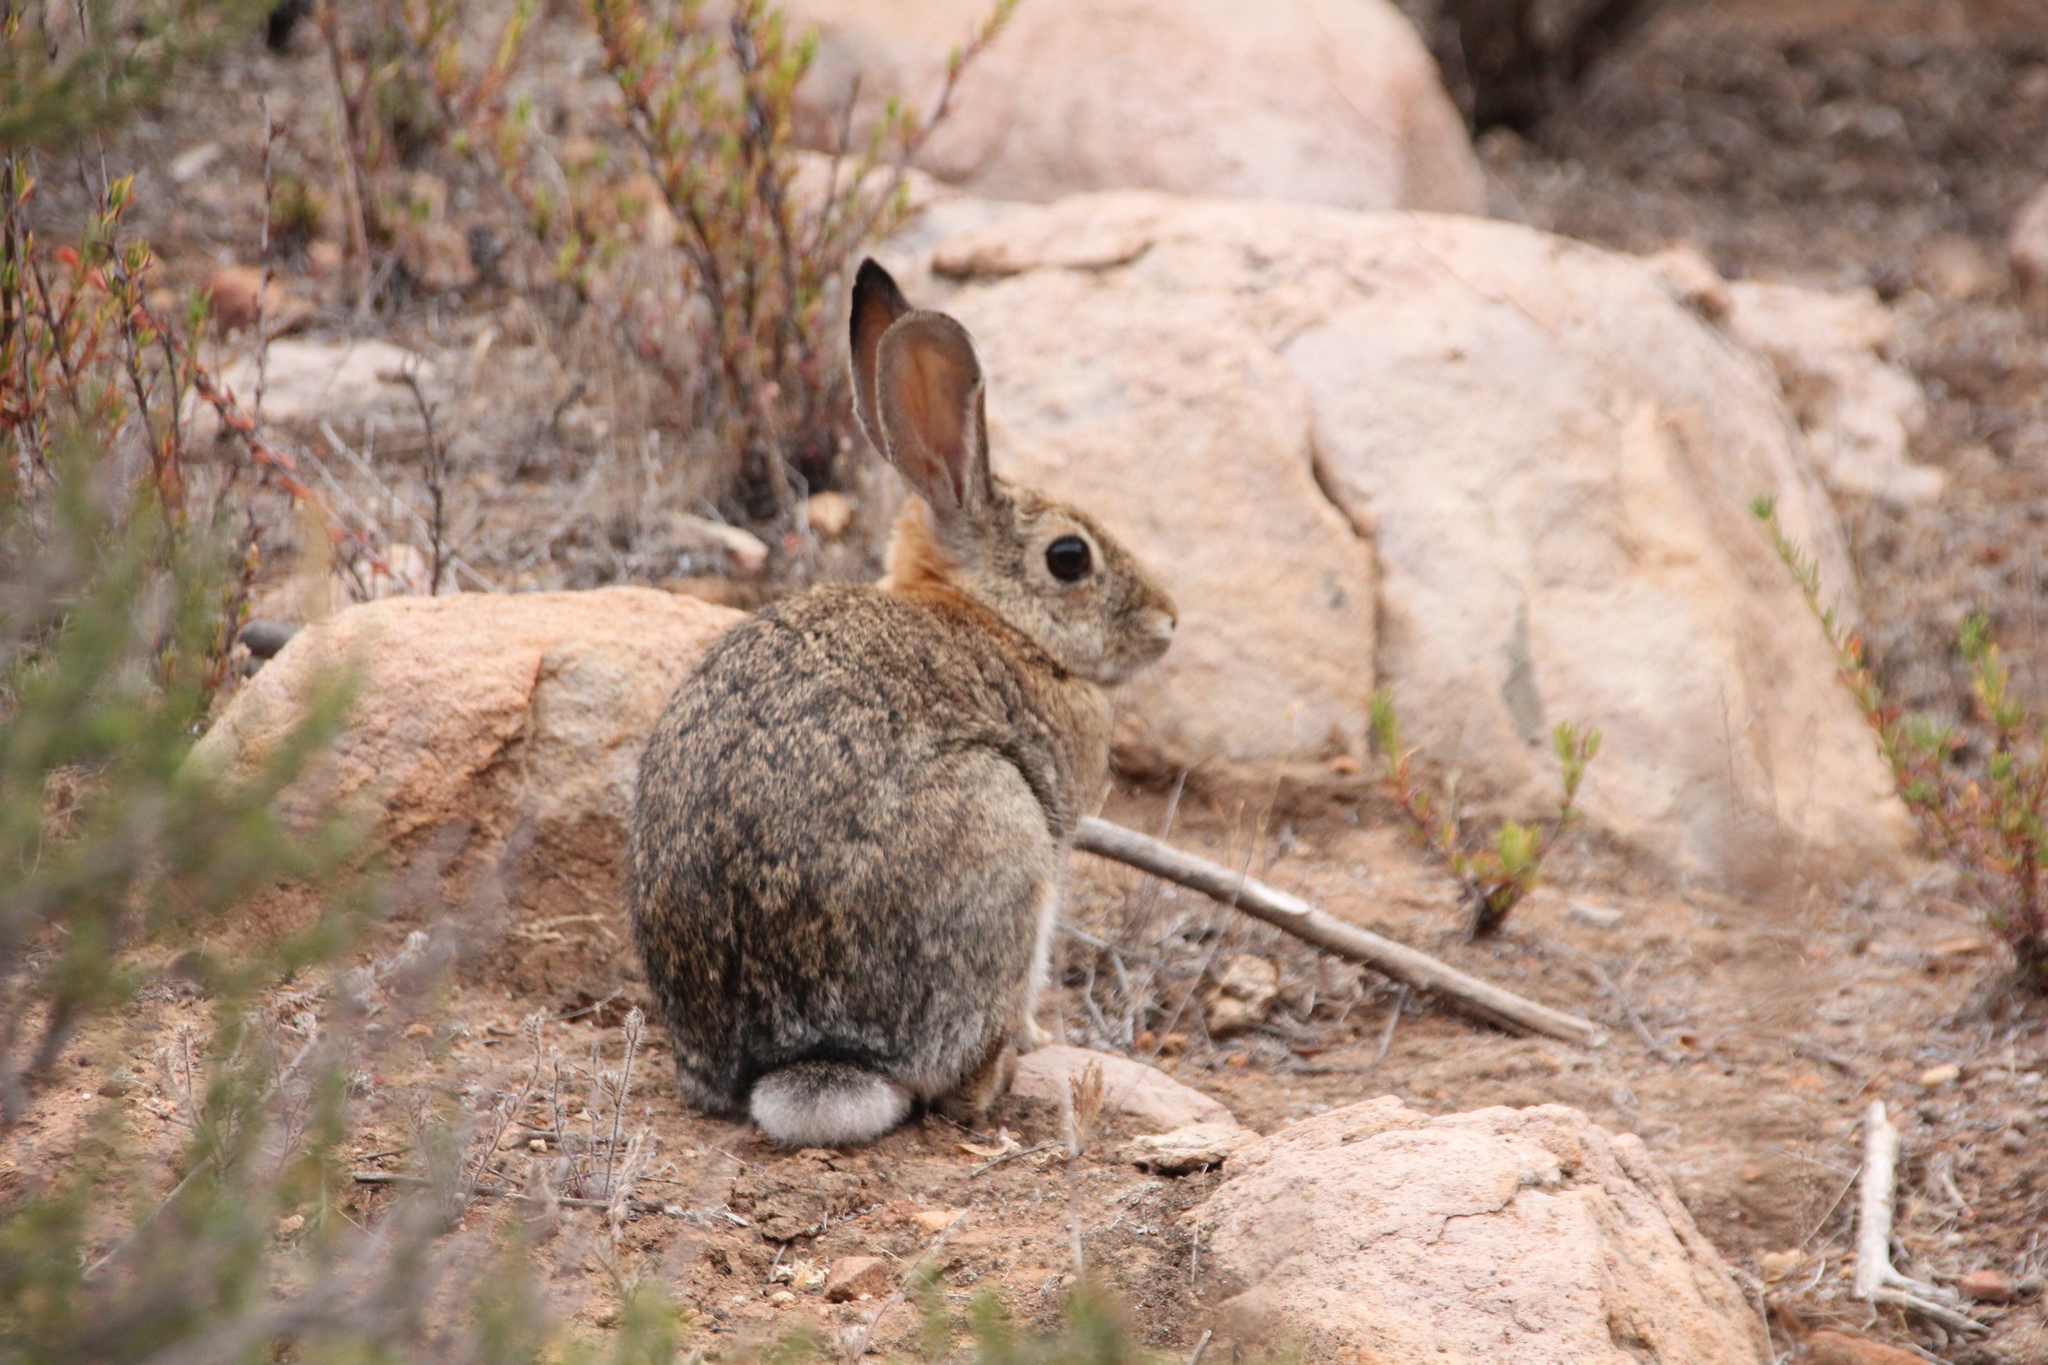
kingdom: Animalia
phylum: Chordata
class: Mammalia
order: Lagomorpha
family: Leporidae
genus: Sylvilagus
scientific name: Sylvilagus audubonii
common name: Desert cottontail
